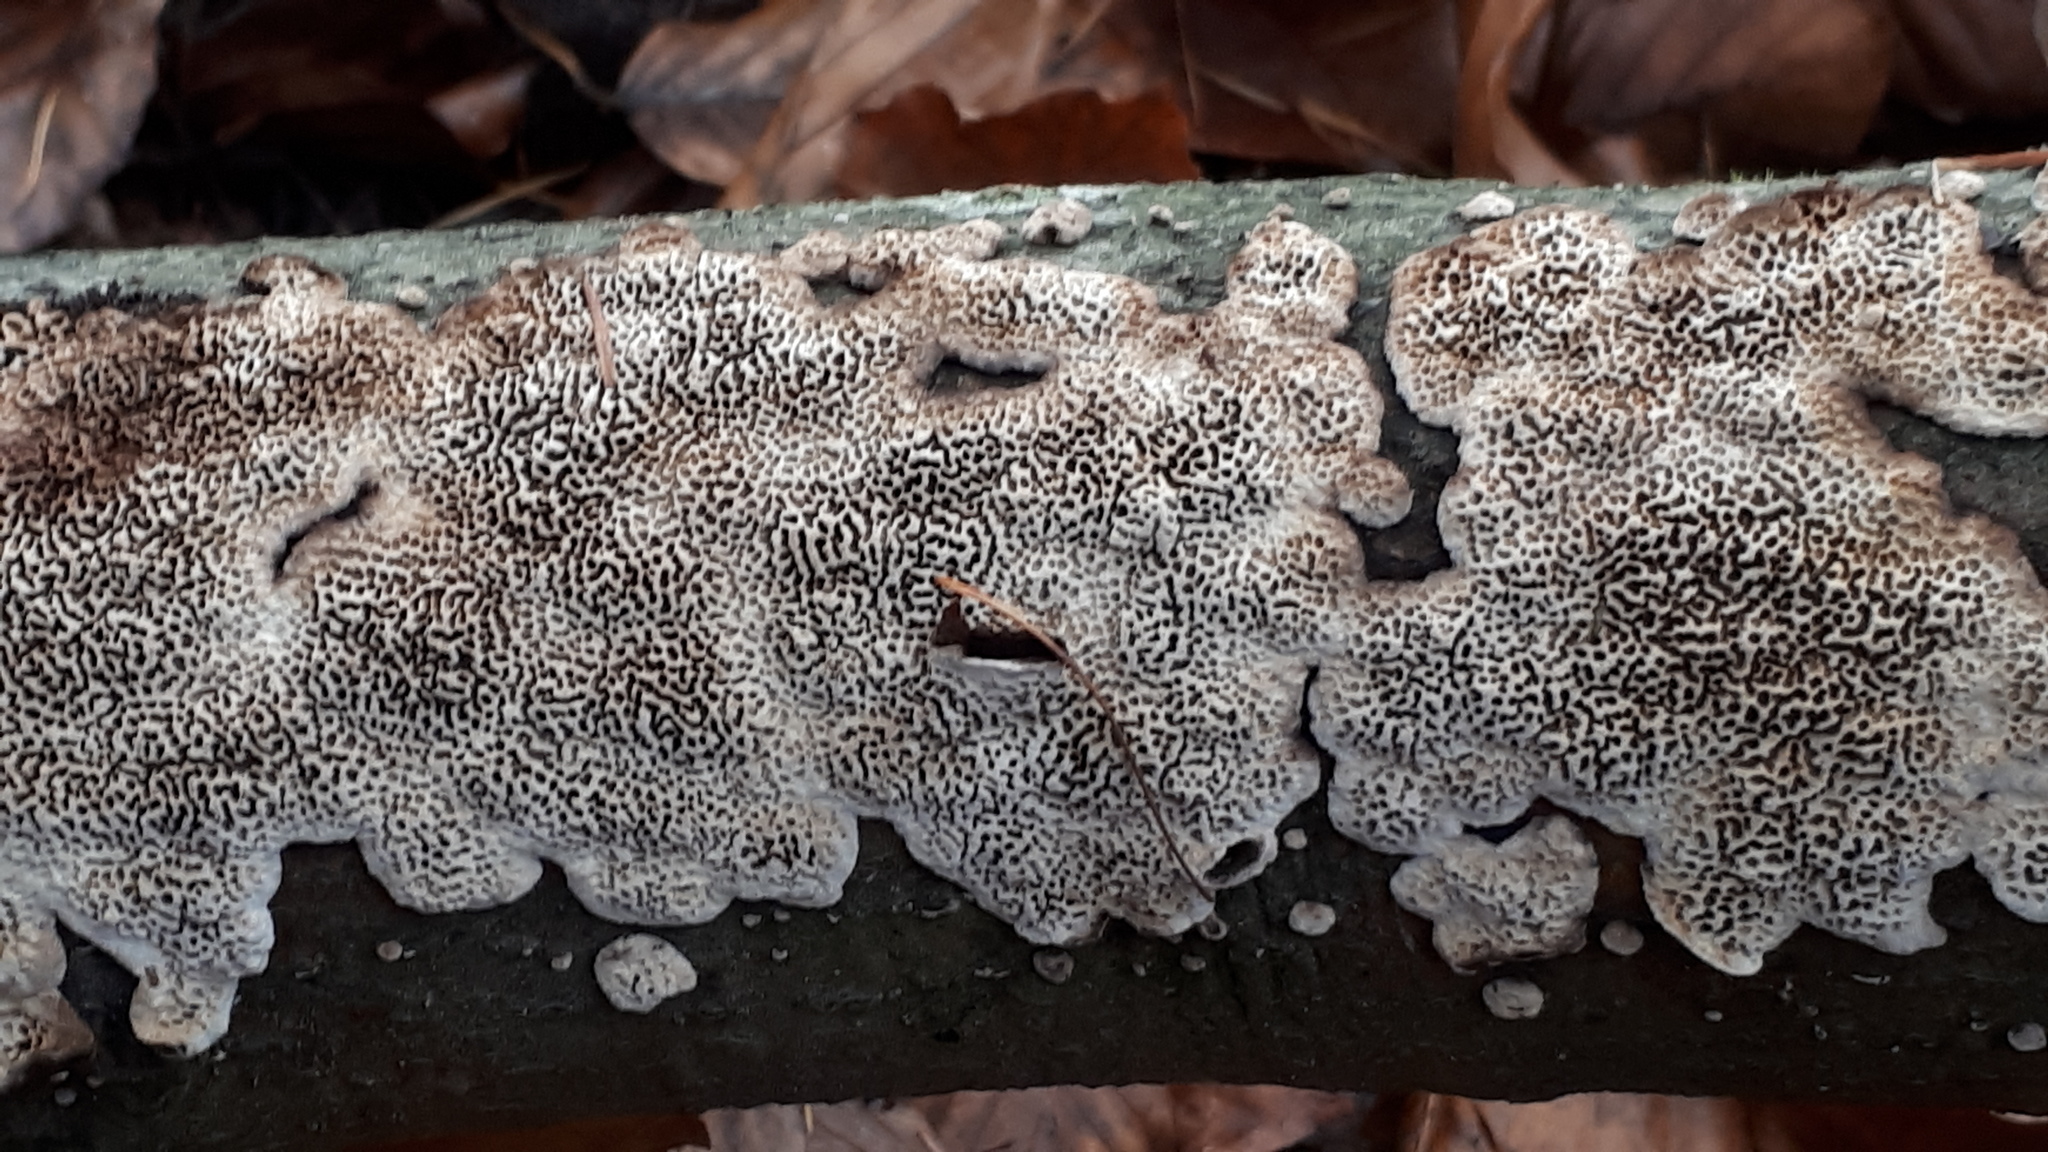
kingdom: Fungi
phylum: Basidiomycota
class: Agaricomycetes
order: Polyporales
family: Polyporaceae
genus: Podofomes
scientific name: Podofomes mollis
